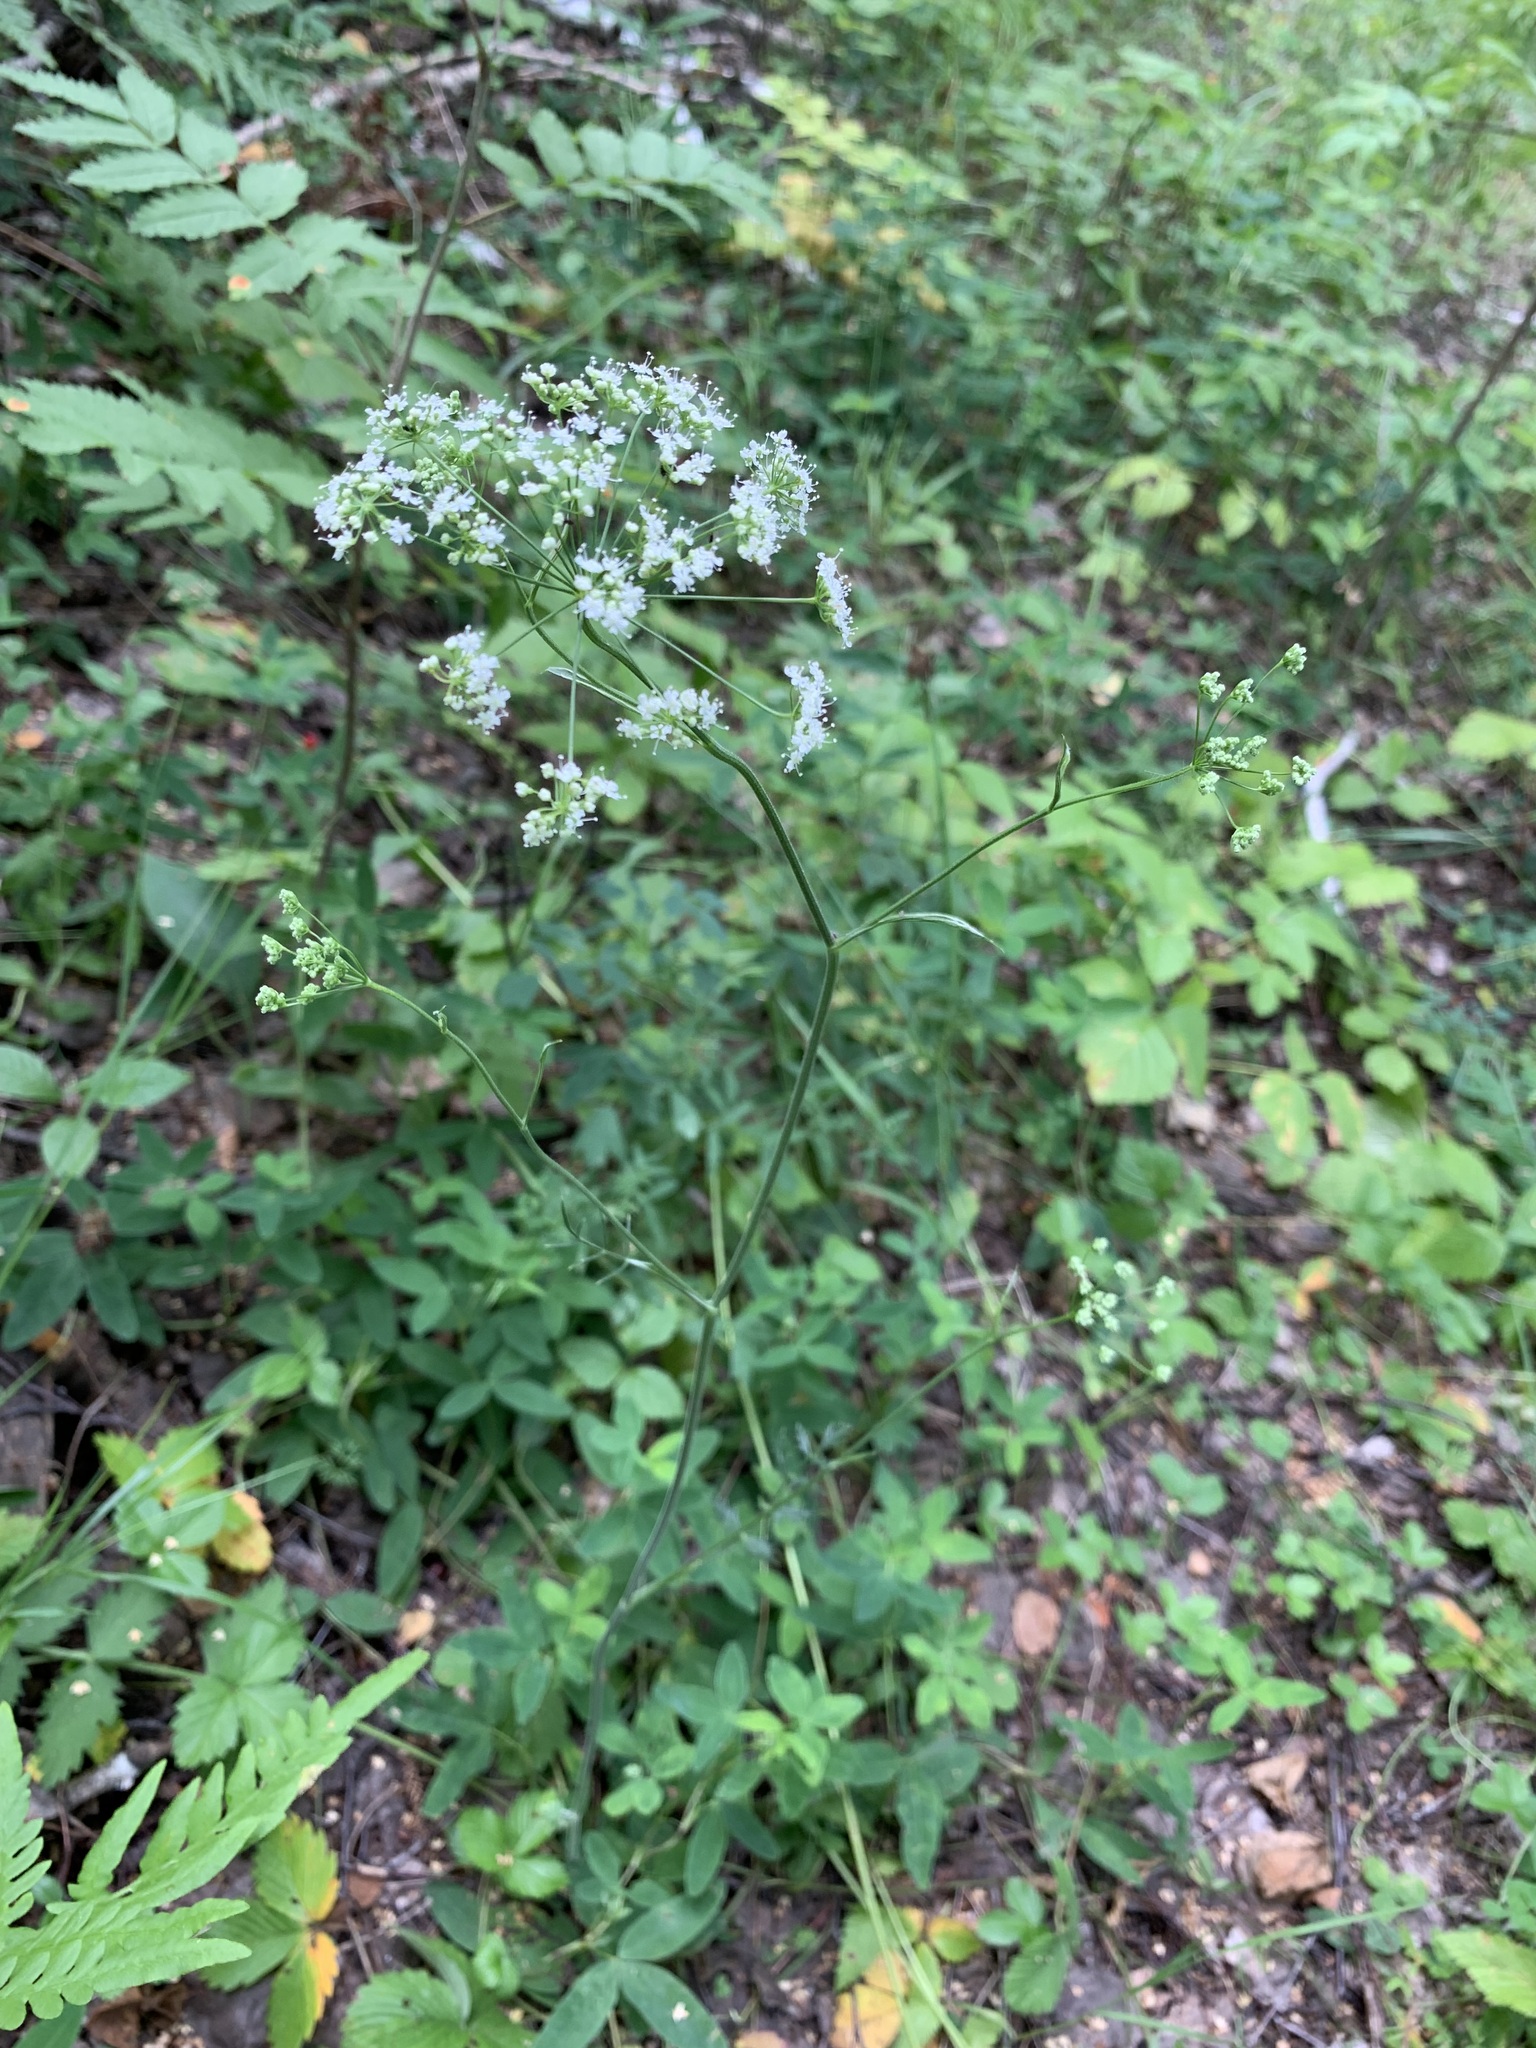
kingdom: Plantae
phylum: Tracheophyta
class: Magnoliopsida
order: Apiales
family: Apiaceae
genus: Pimpinella
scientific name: Pimpinella saxifraga
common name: Burnet-saxifrage
